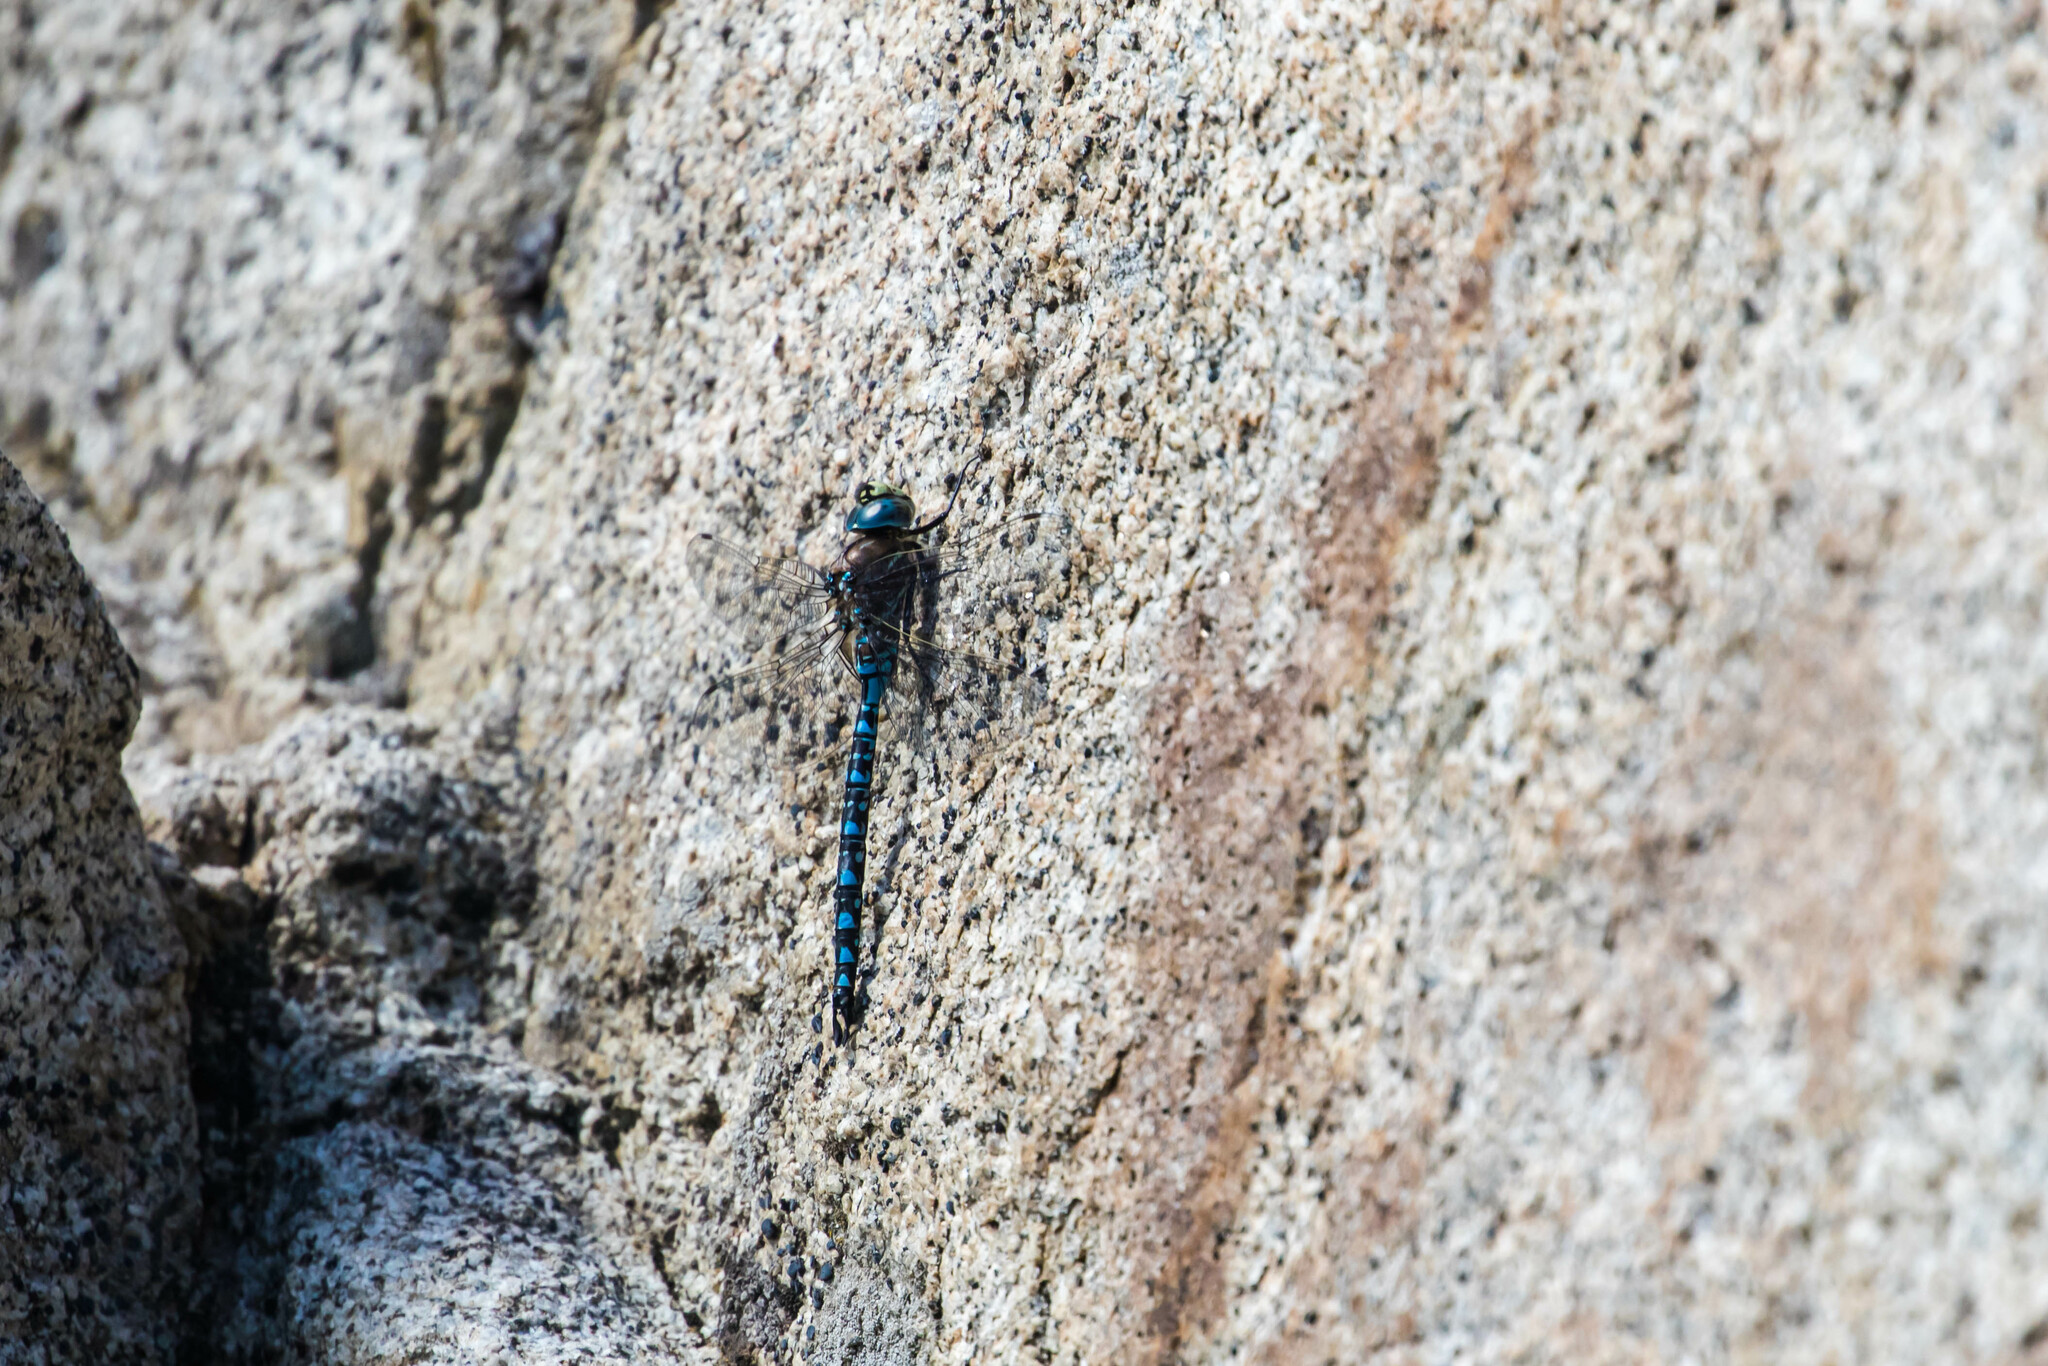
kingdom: Animalia
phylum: Arthropoda
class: Insecta
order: Odonata
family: Aeshnidae
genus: Aeshna
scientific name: Aeshna interrupta
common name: Variable darner
